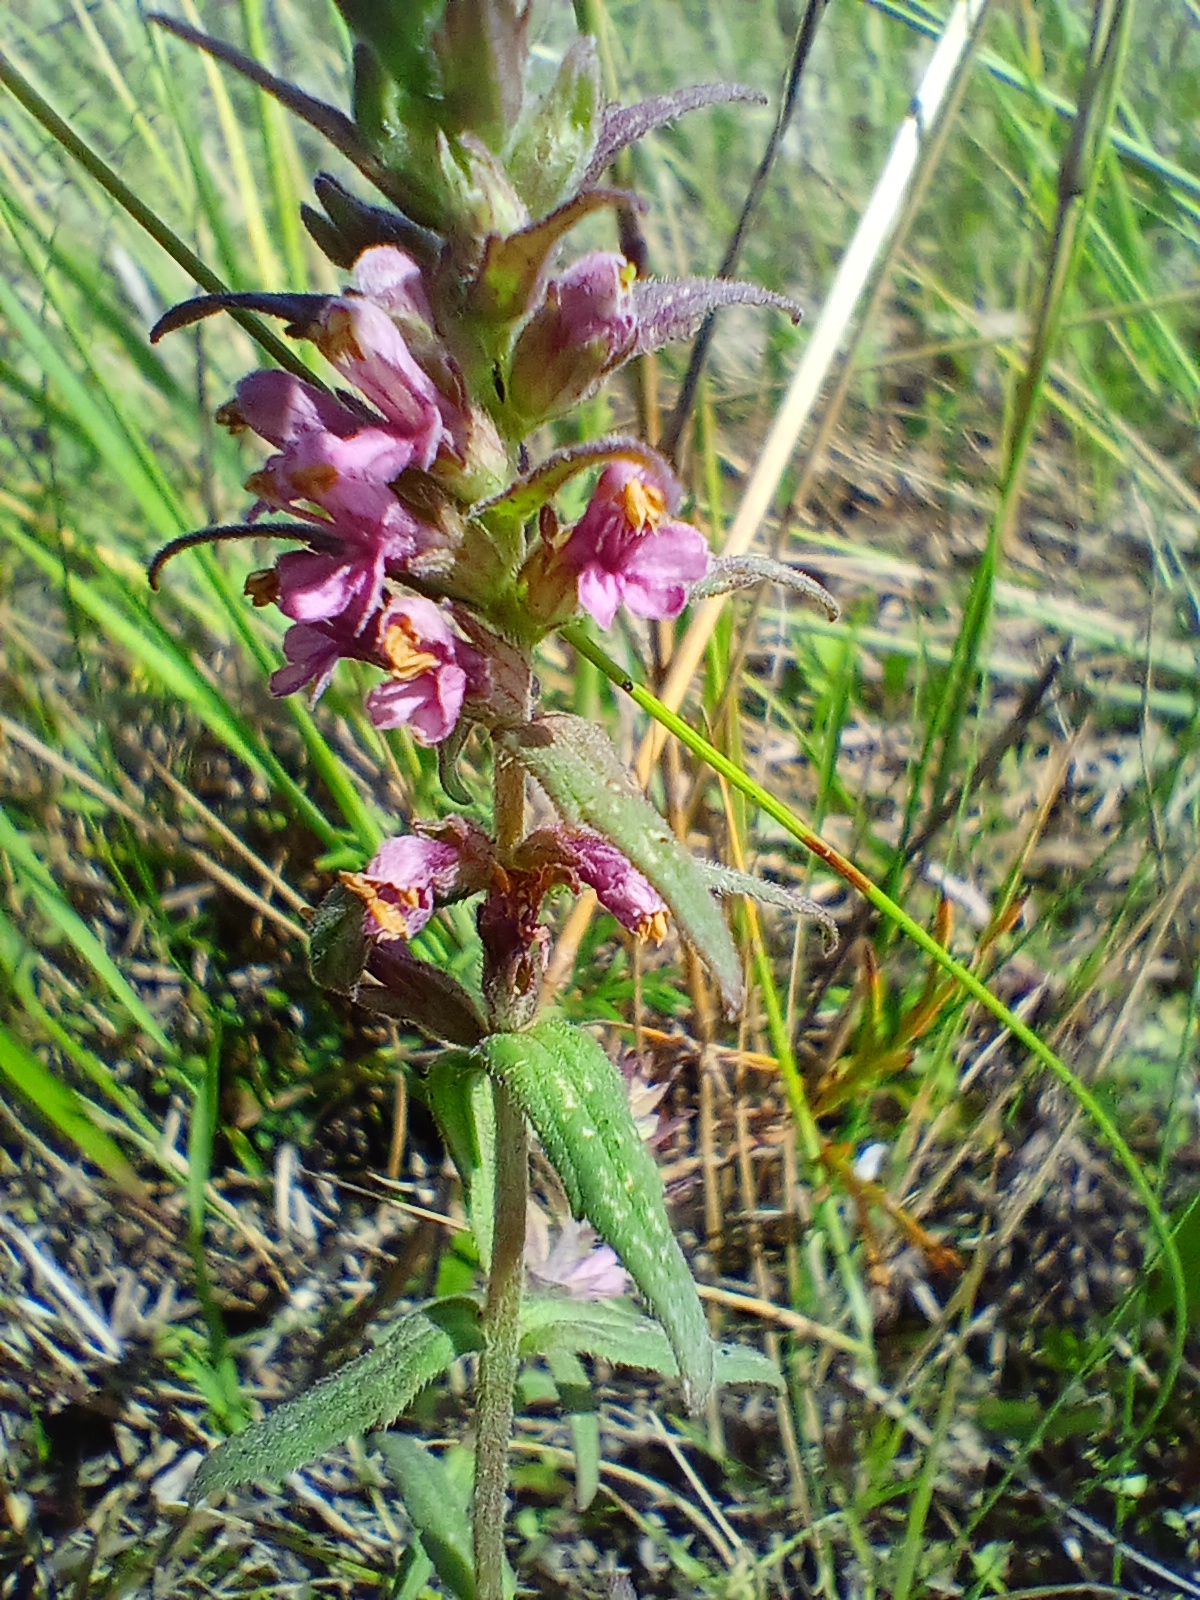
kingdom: Plantae
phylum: Tracheophyta
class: Magnoliopsida
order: Lamiales
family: Orobanchaceae
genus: Odontites
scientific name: Odontites vulgaris
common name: Broomrape
